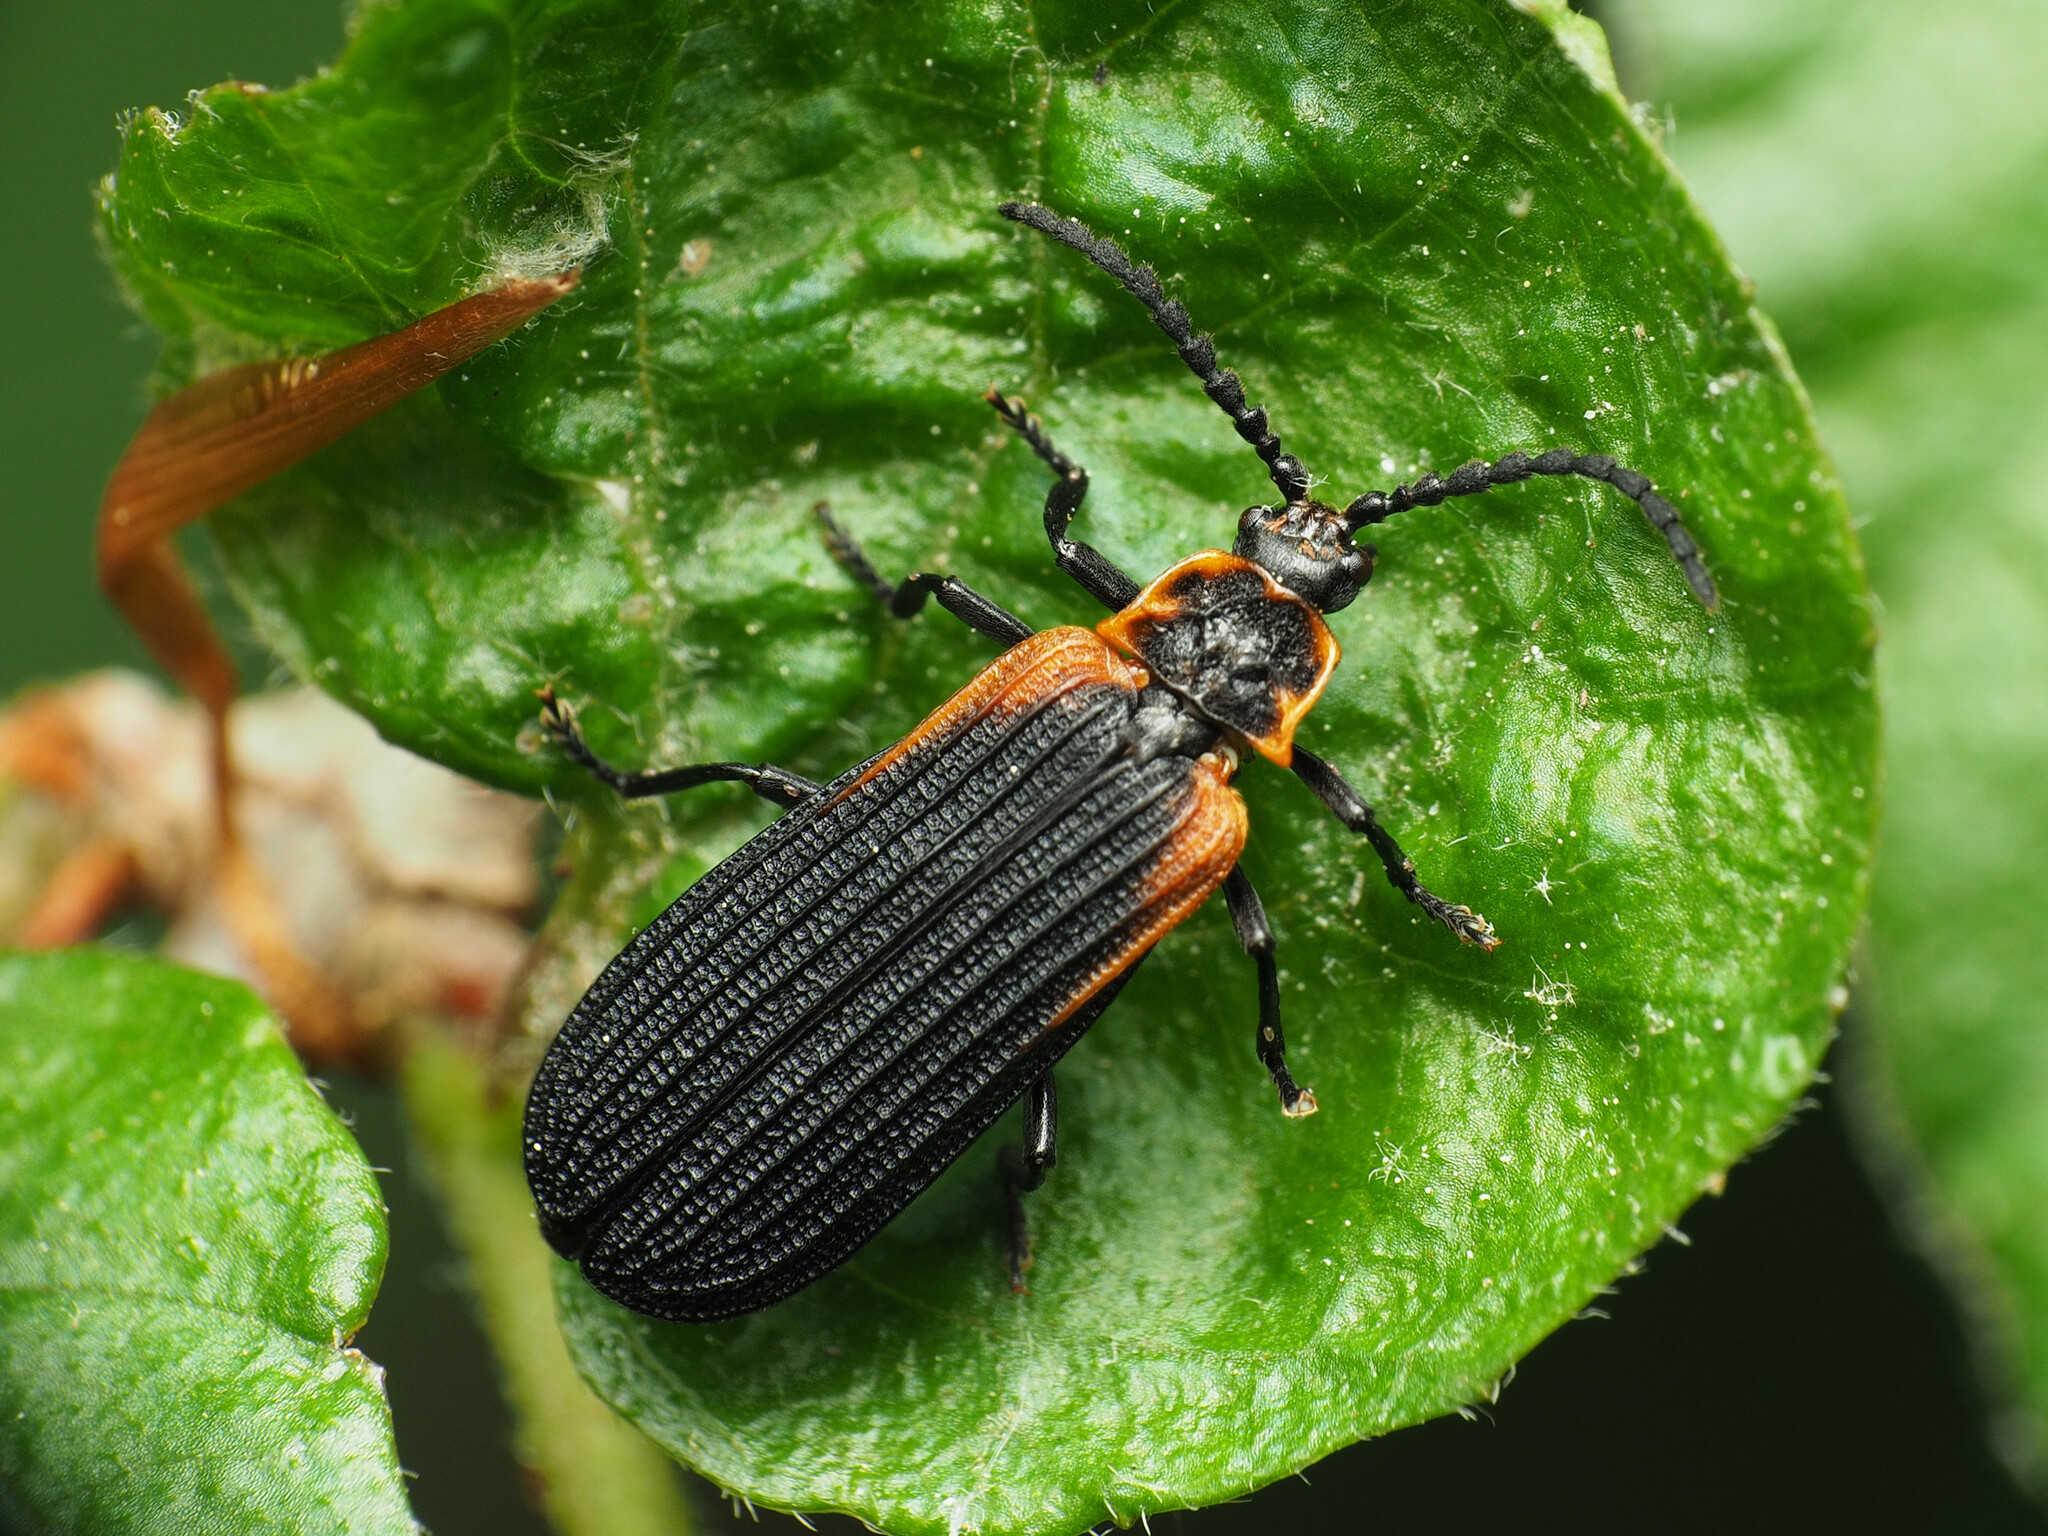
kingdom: Animalia
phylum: Arthropoda
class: Insecta
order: Coleoptera
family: Lycidae
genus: Eros
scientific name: Eros humeralis
